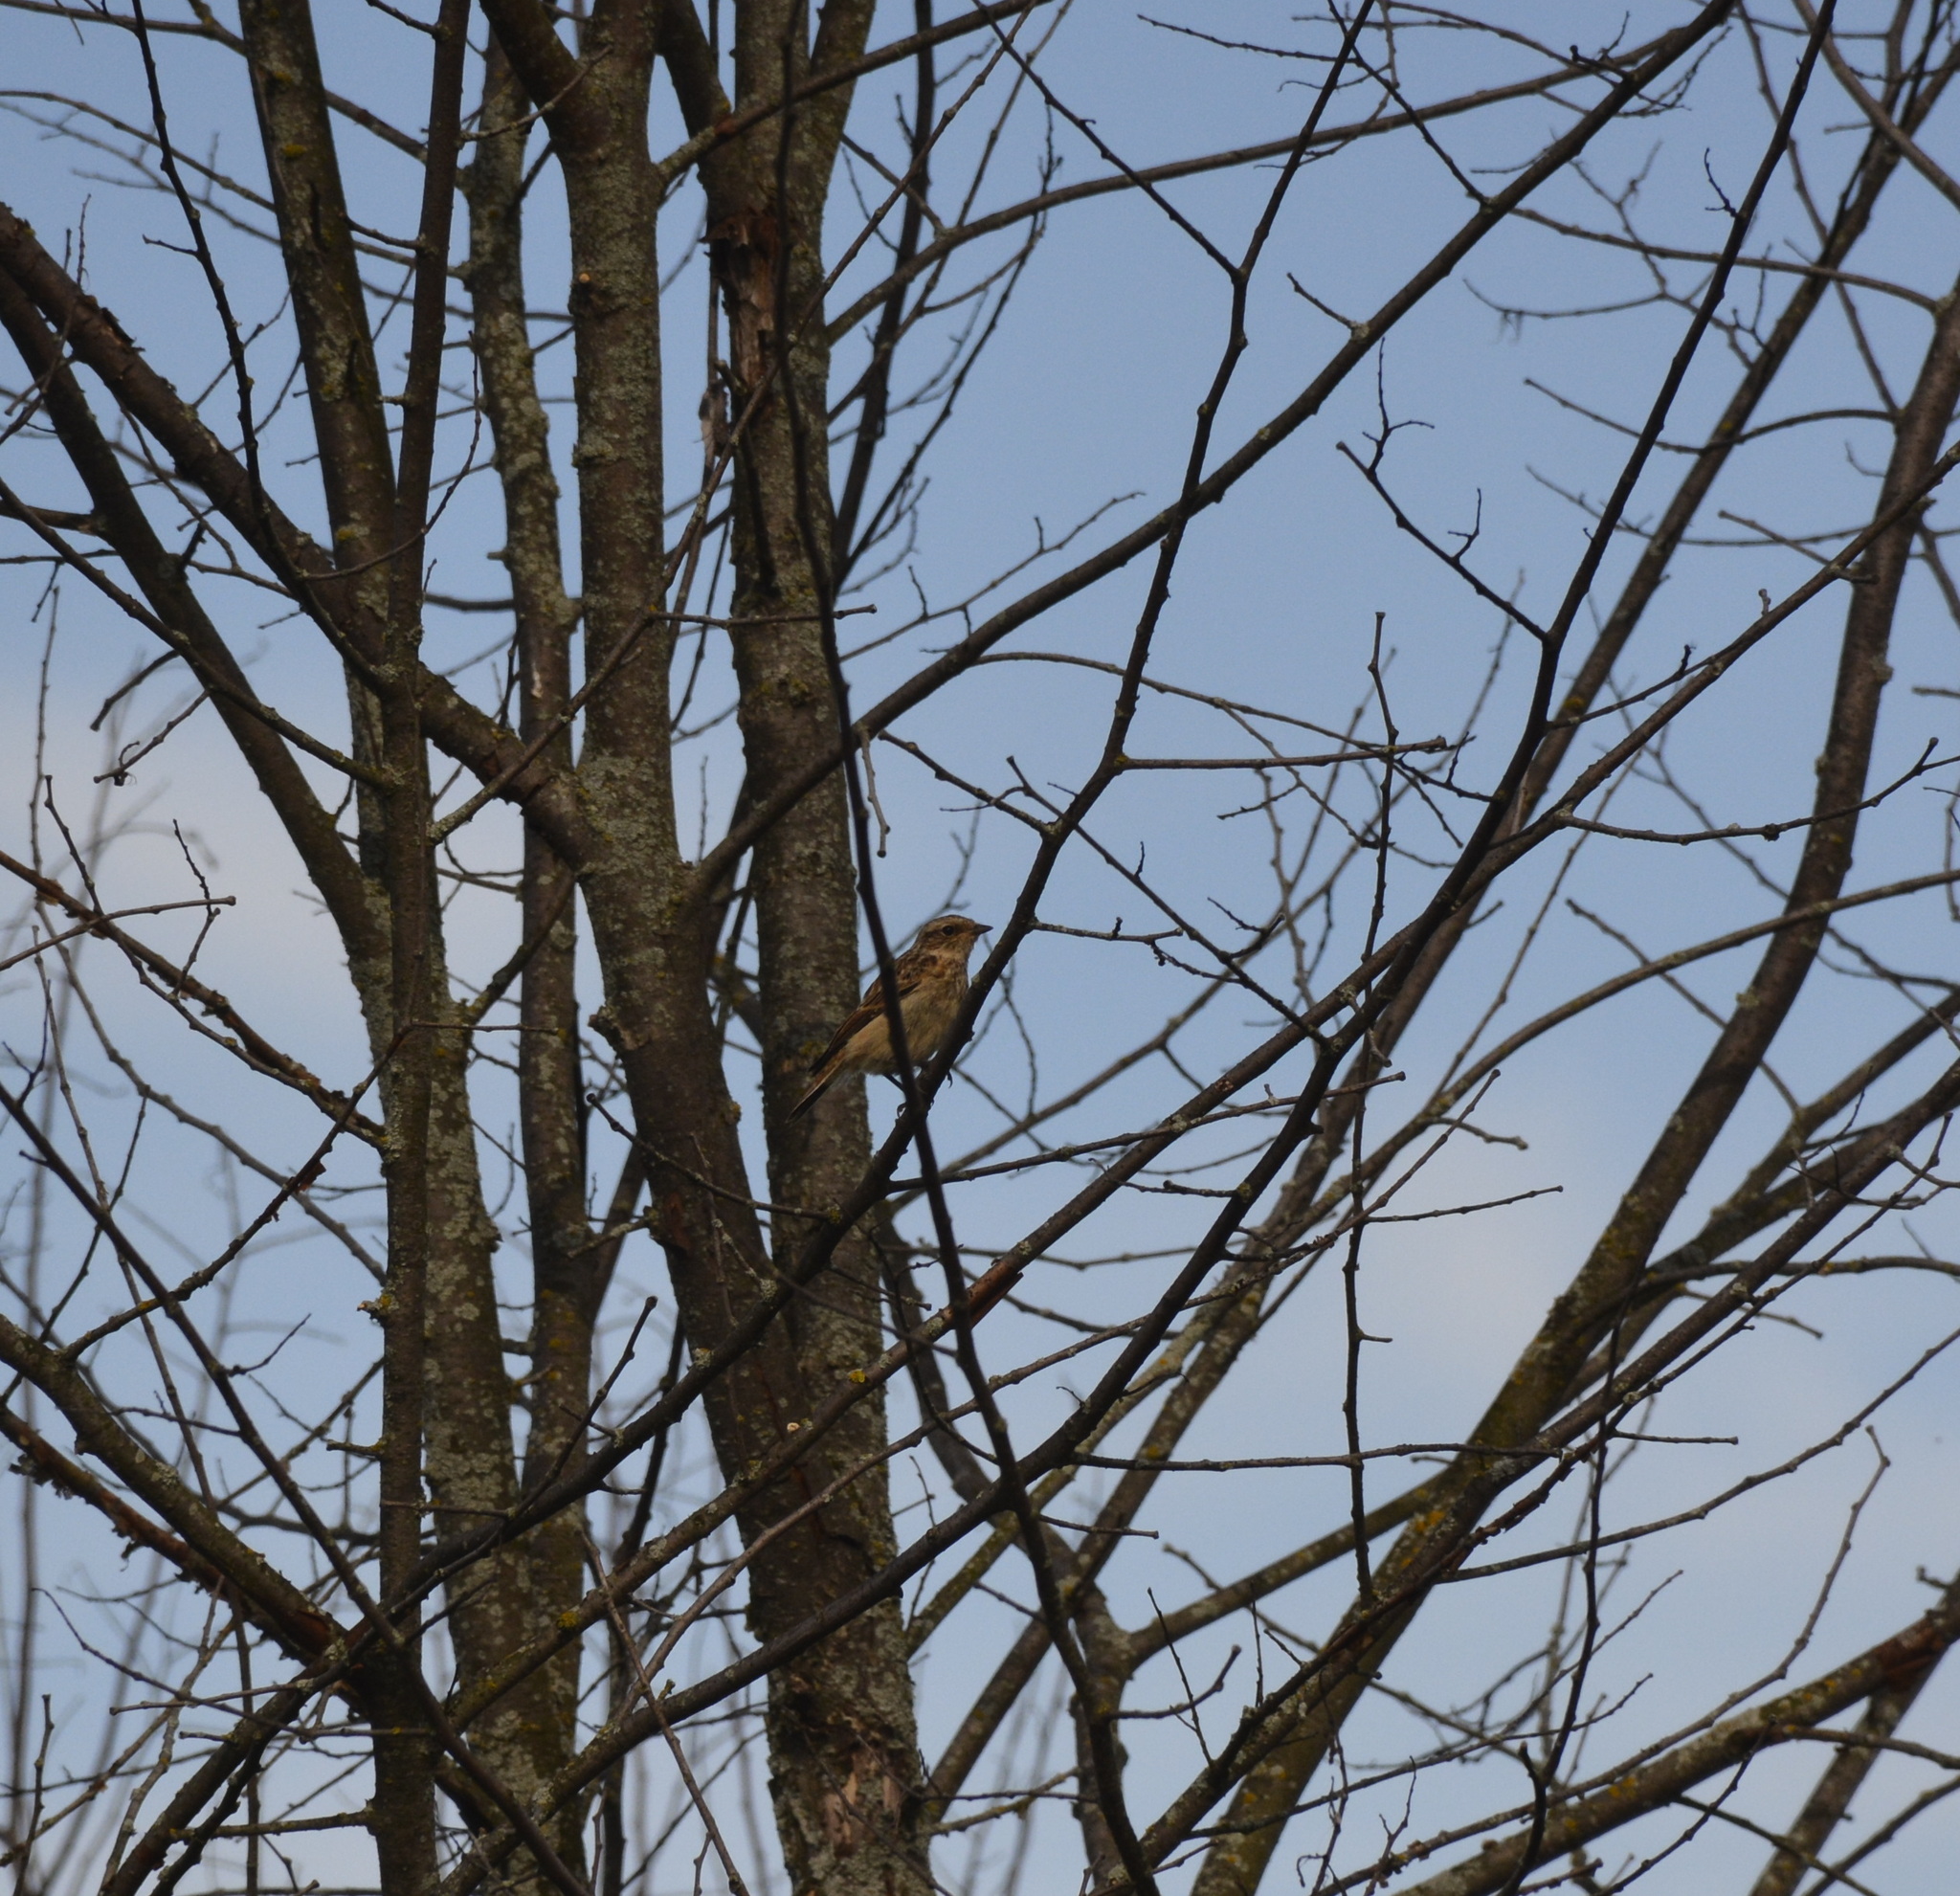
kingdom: Animalia
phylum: Chordata
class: Aves
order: Passeriformes
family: Muscicapidae
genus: Saxicola
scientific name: Saxicola rubetra
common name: Whinchat
